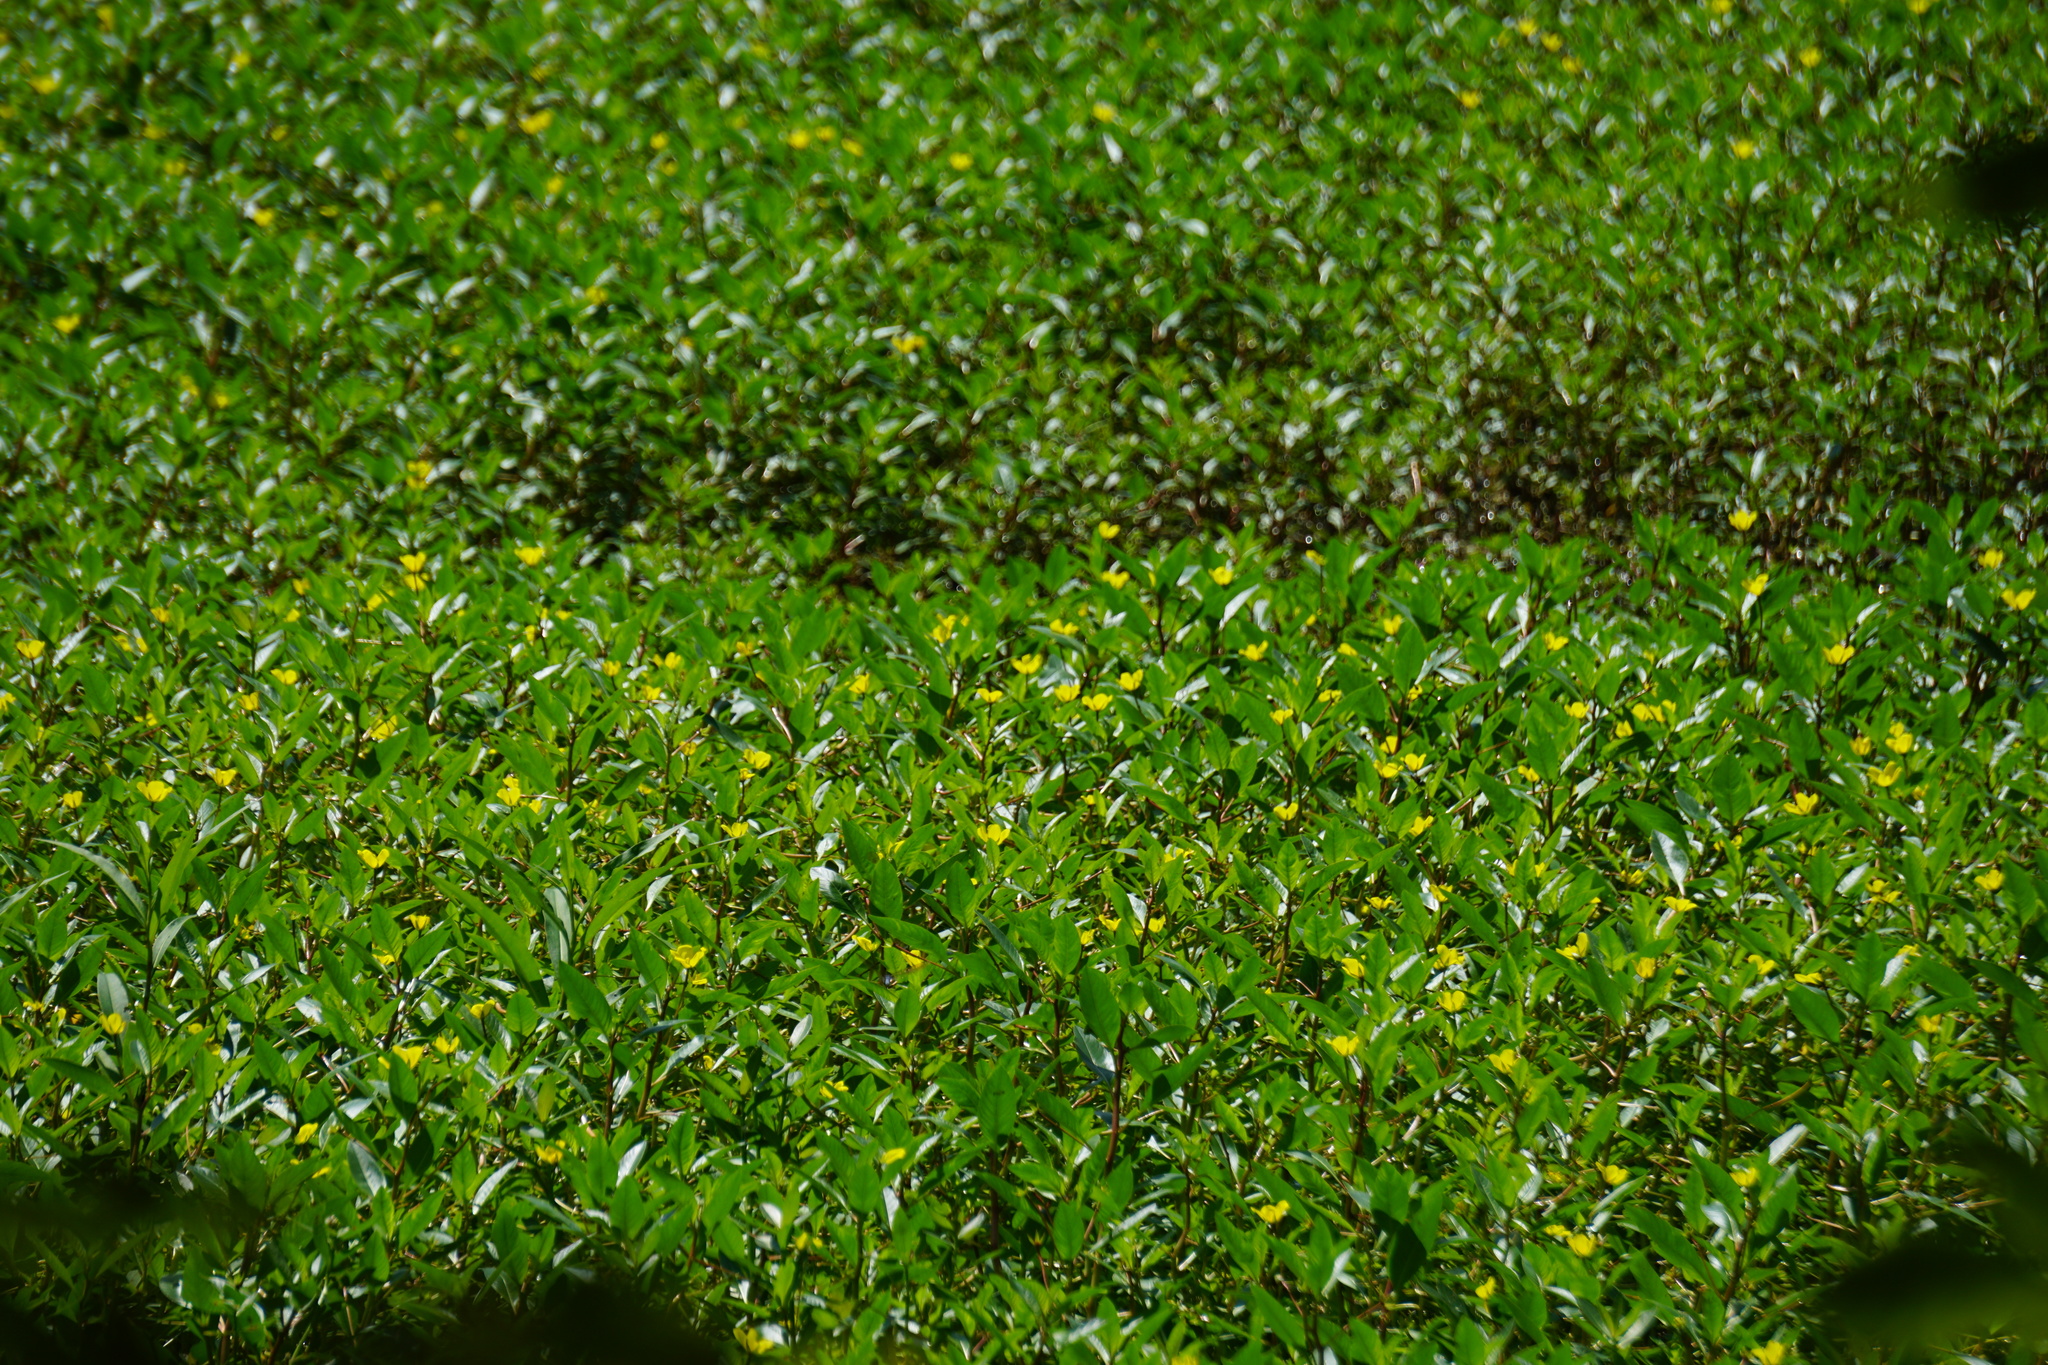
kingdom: Plantae
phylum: Tracheophyta
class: Magnoliopsida
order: Myrtales
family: Onagraceae
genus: Ludwigia
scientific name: Ludwigia alternifolia
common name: Rattlebox
